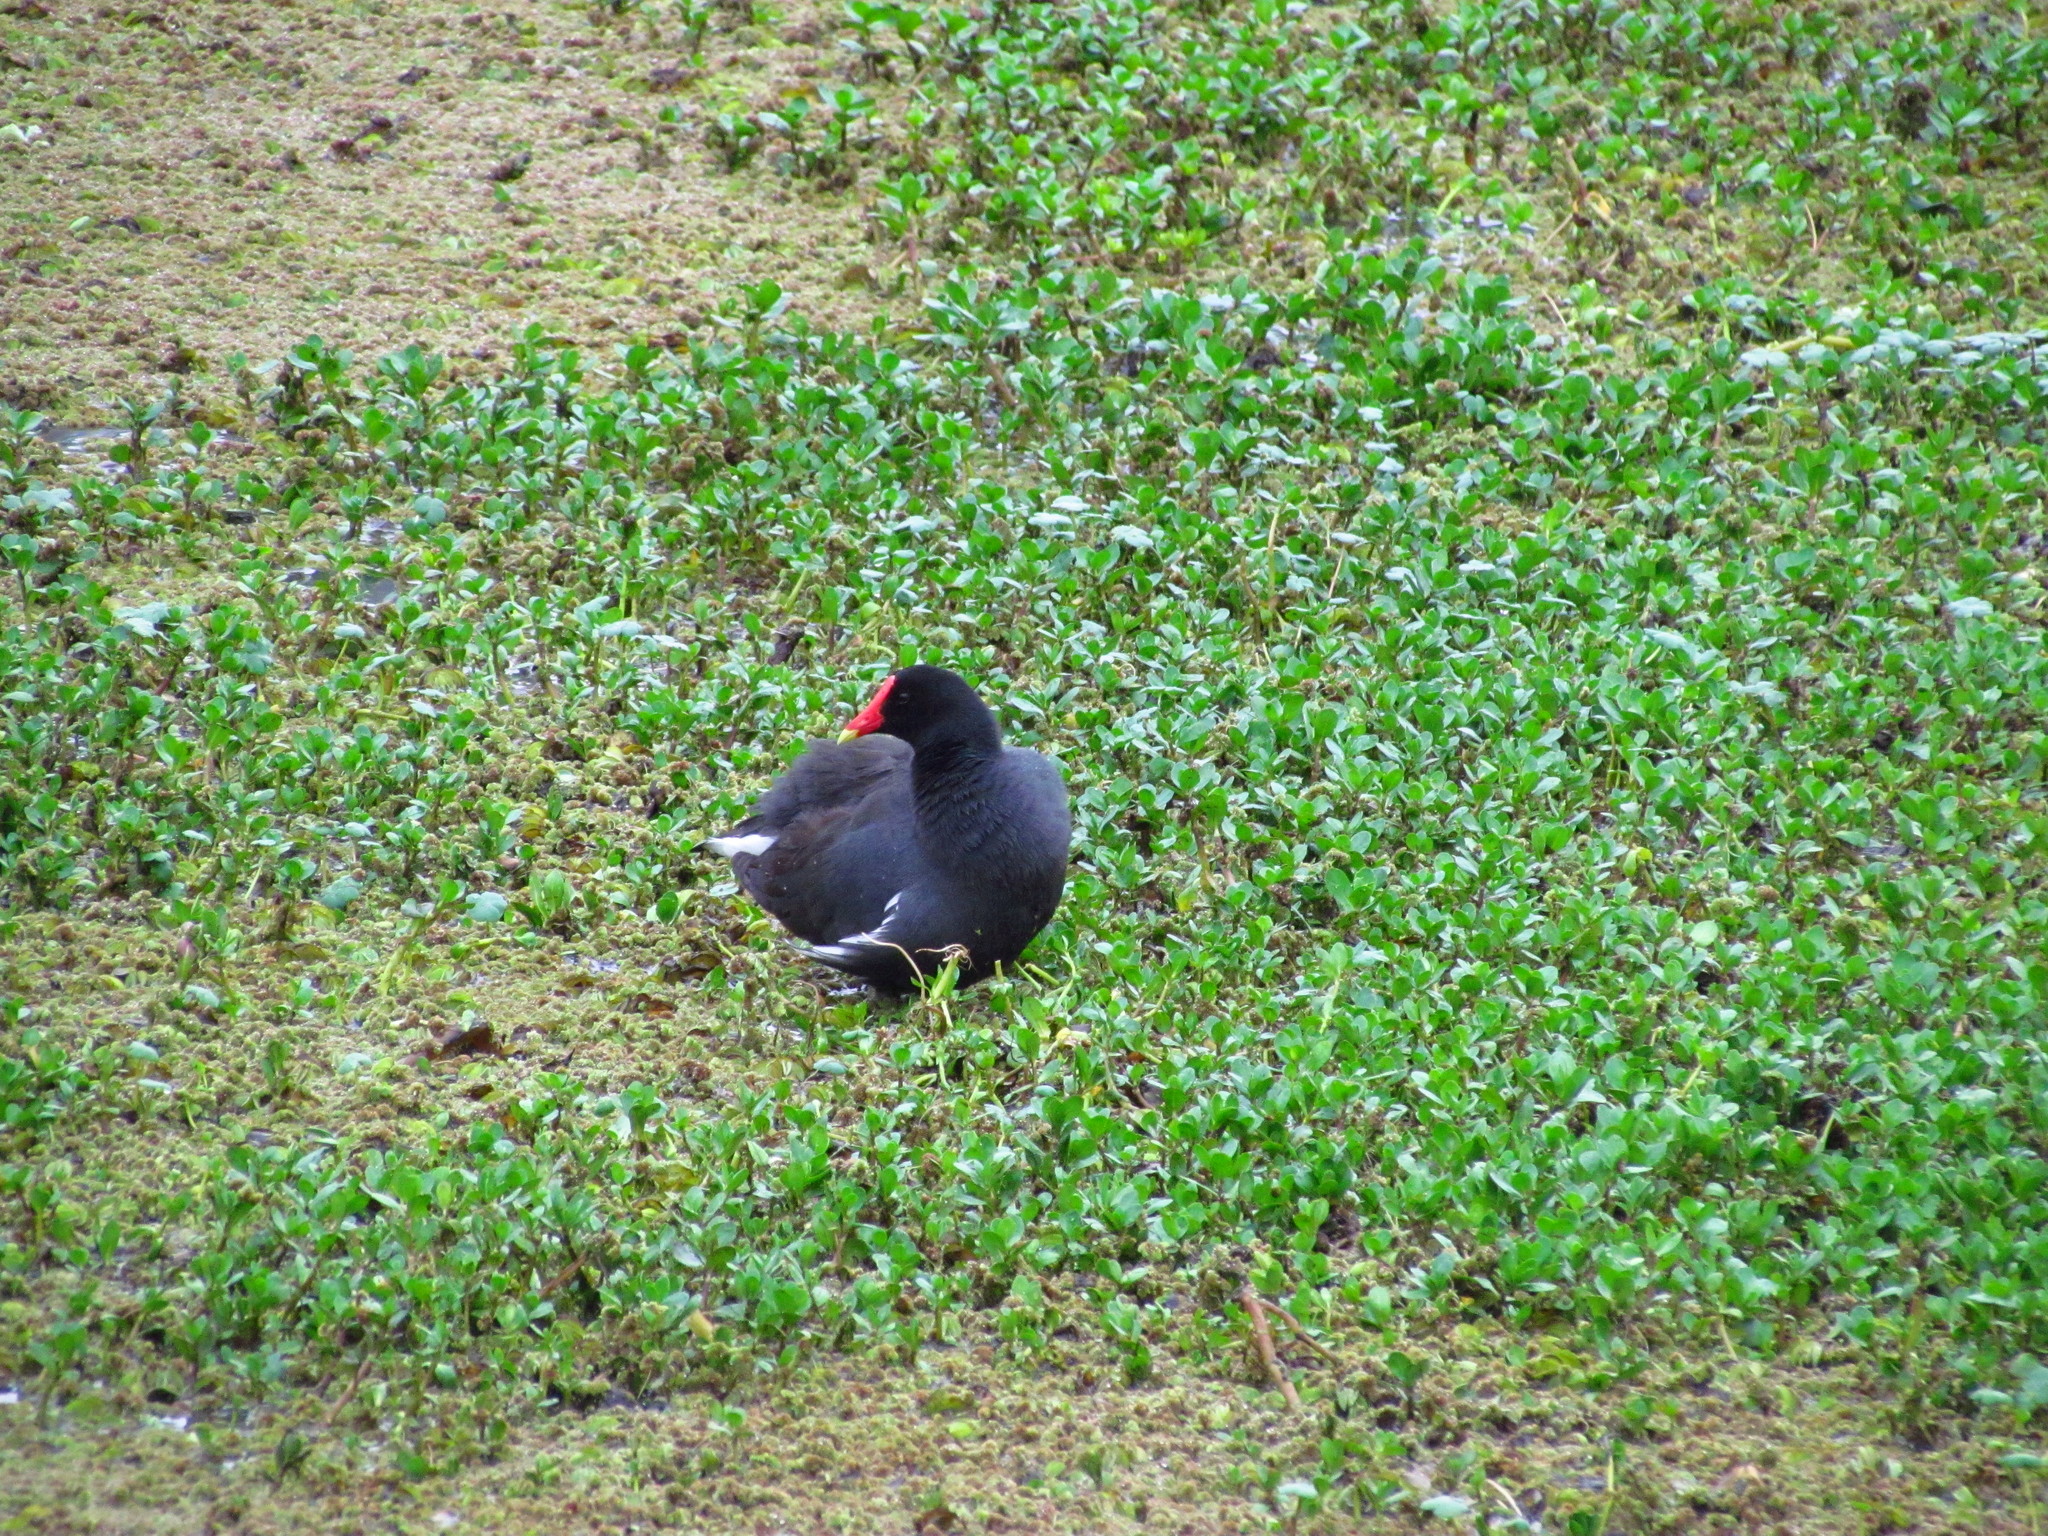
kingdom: Animalia
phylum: Chordata
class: Aves
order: Gruiformes
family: Rallidae
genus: Gallinula
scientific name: Gallinula chloropus
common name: Common moorhen
